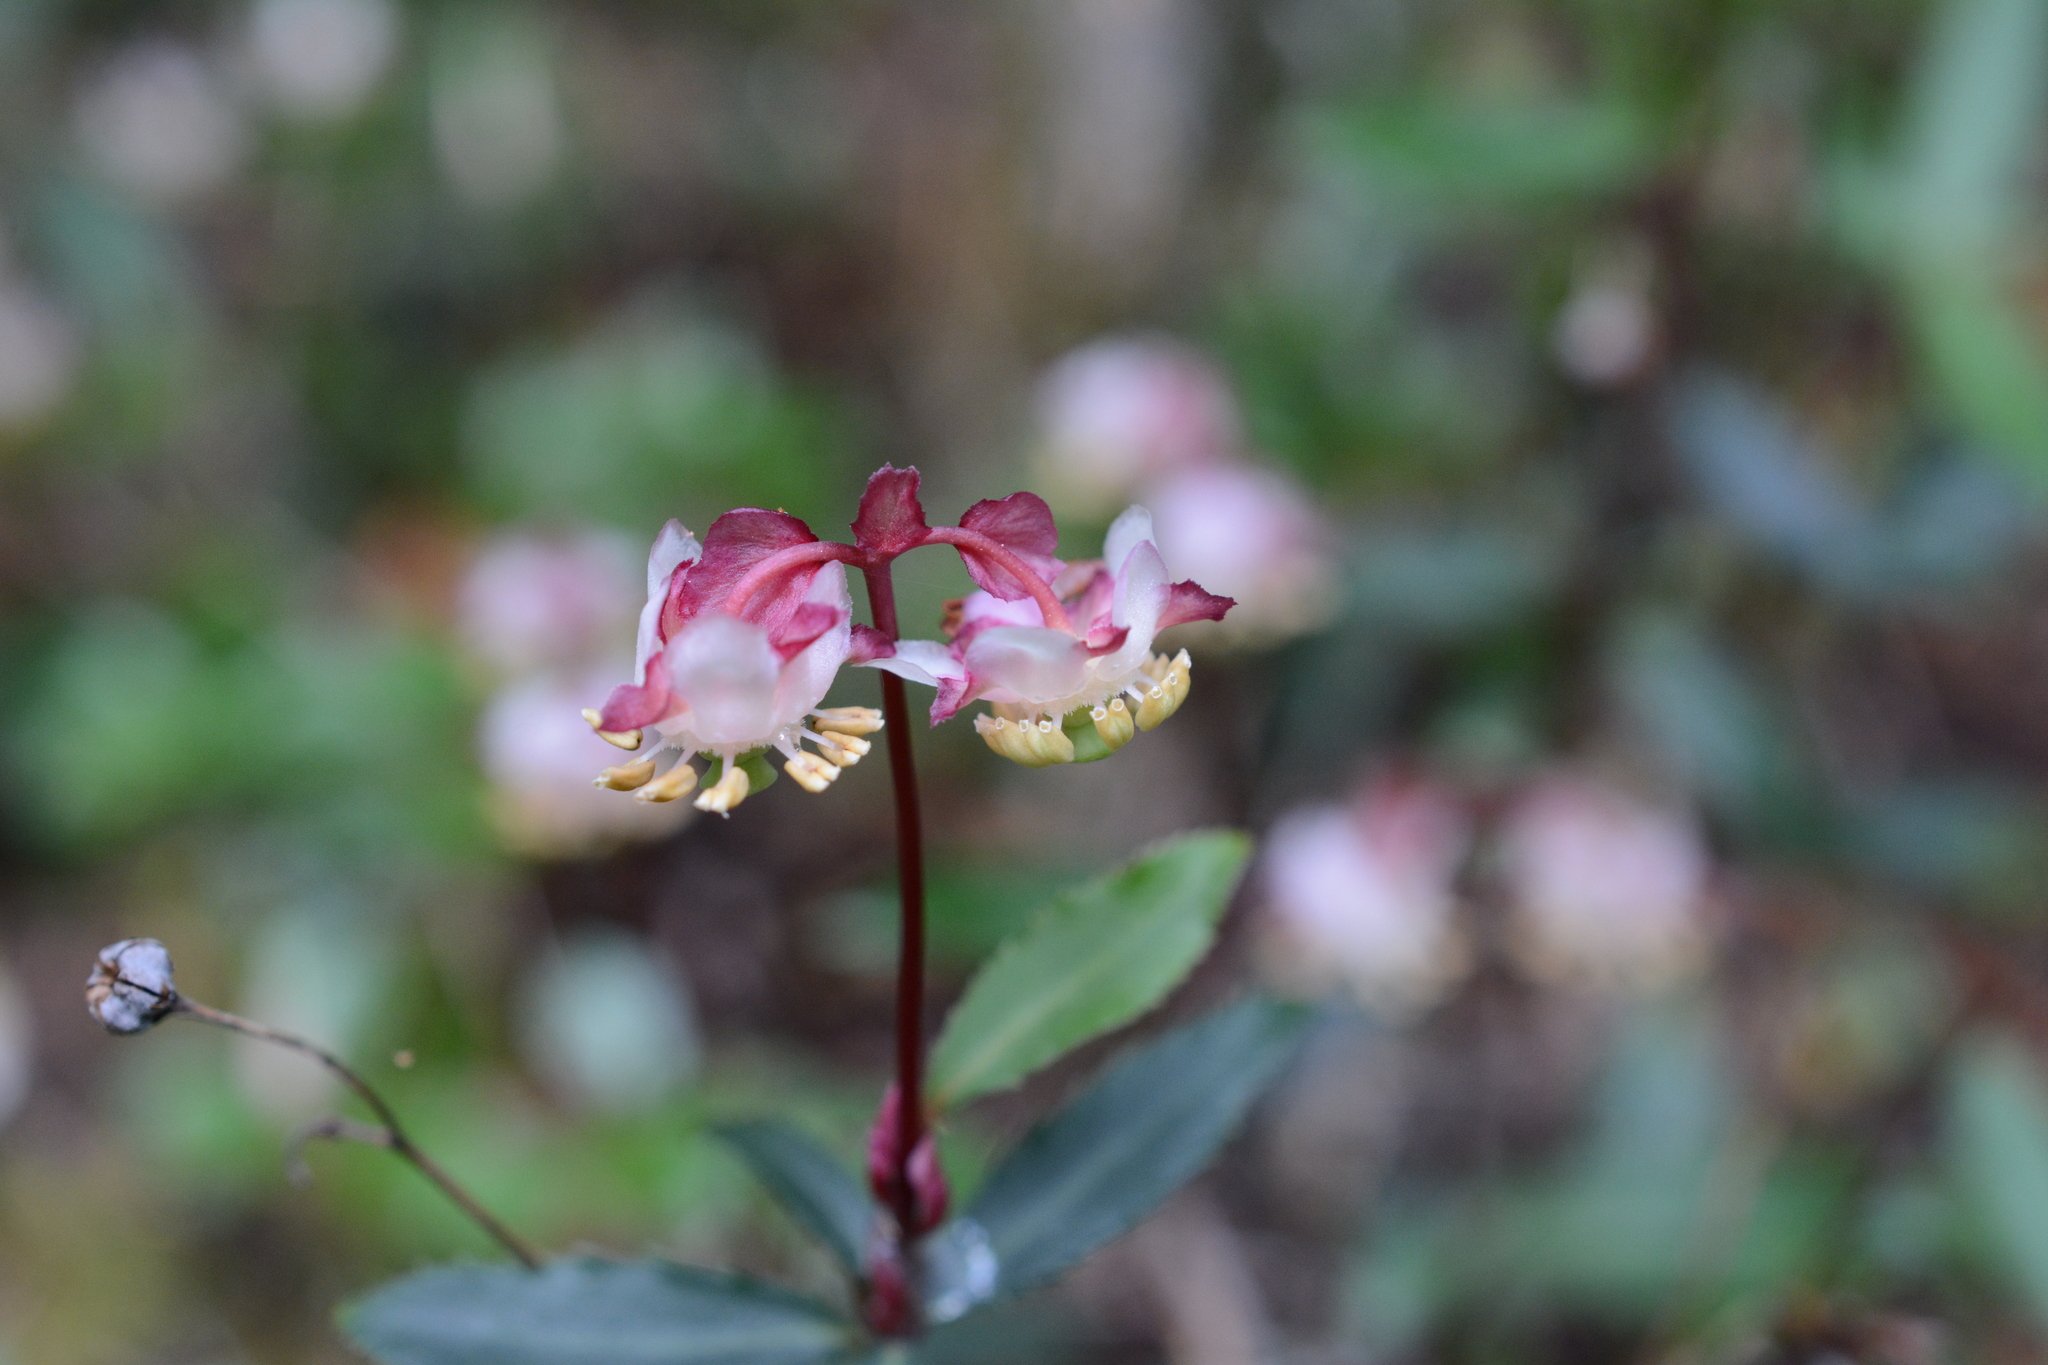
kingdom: Plantae
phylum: Tracheophyta
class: Magnoliopsida
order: Ericales
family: Ericaceae
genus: Chimaphila
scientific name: Chimaphila menziesii
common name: Menzies' pipsissewa
